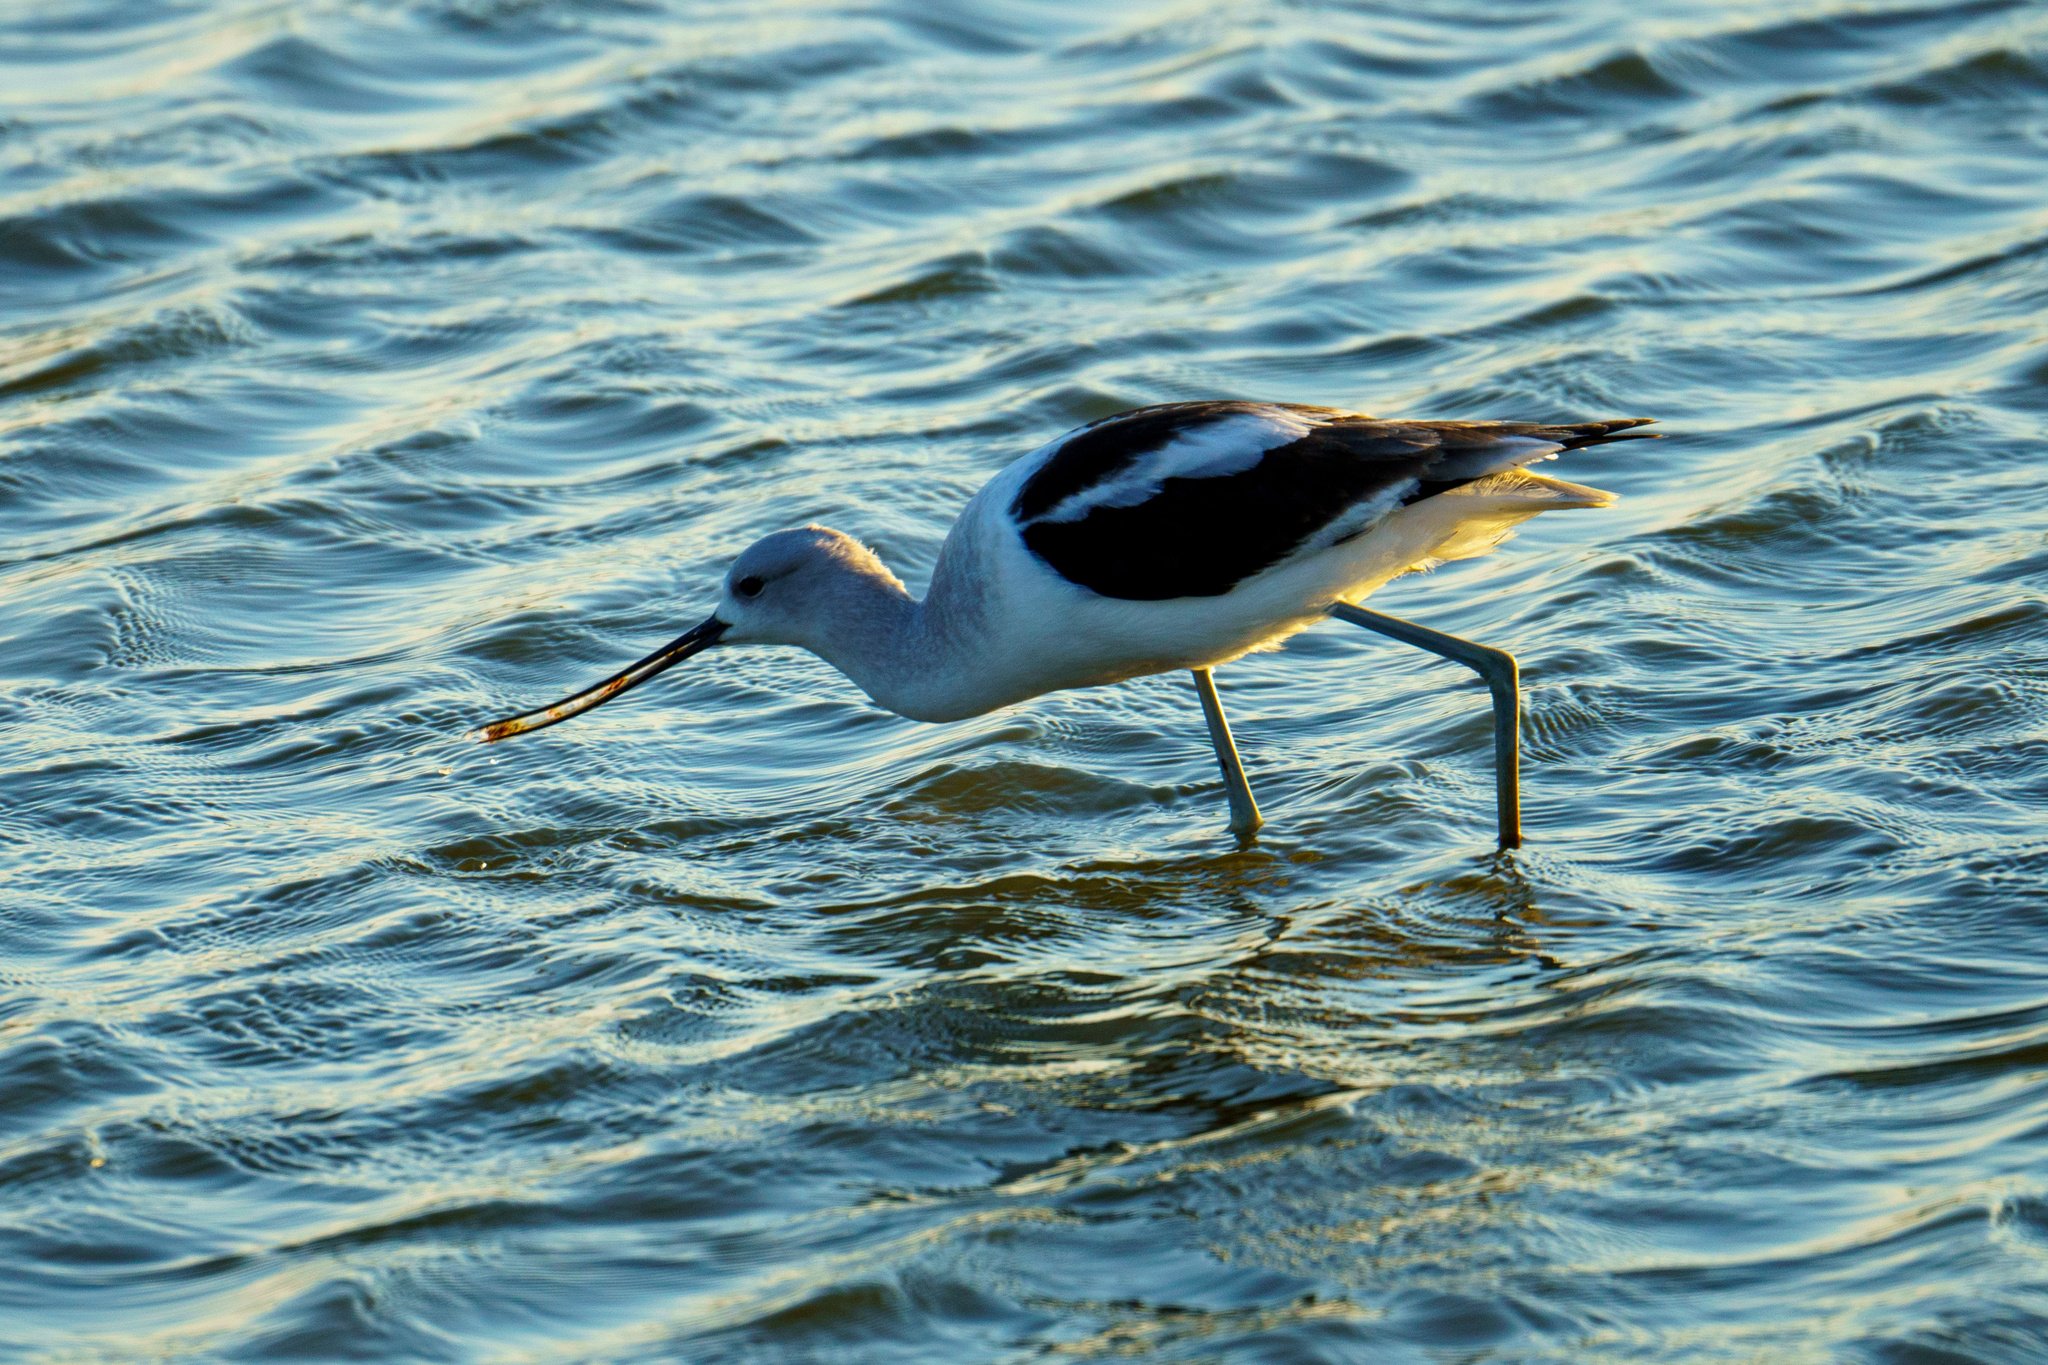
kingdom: Animalia
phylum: Chordata
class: Aves
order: Charadriiformes
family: Recurvirostridae
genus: Recurvirostra
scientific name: Recurvirostra americana
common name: American avocet
